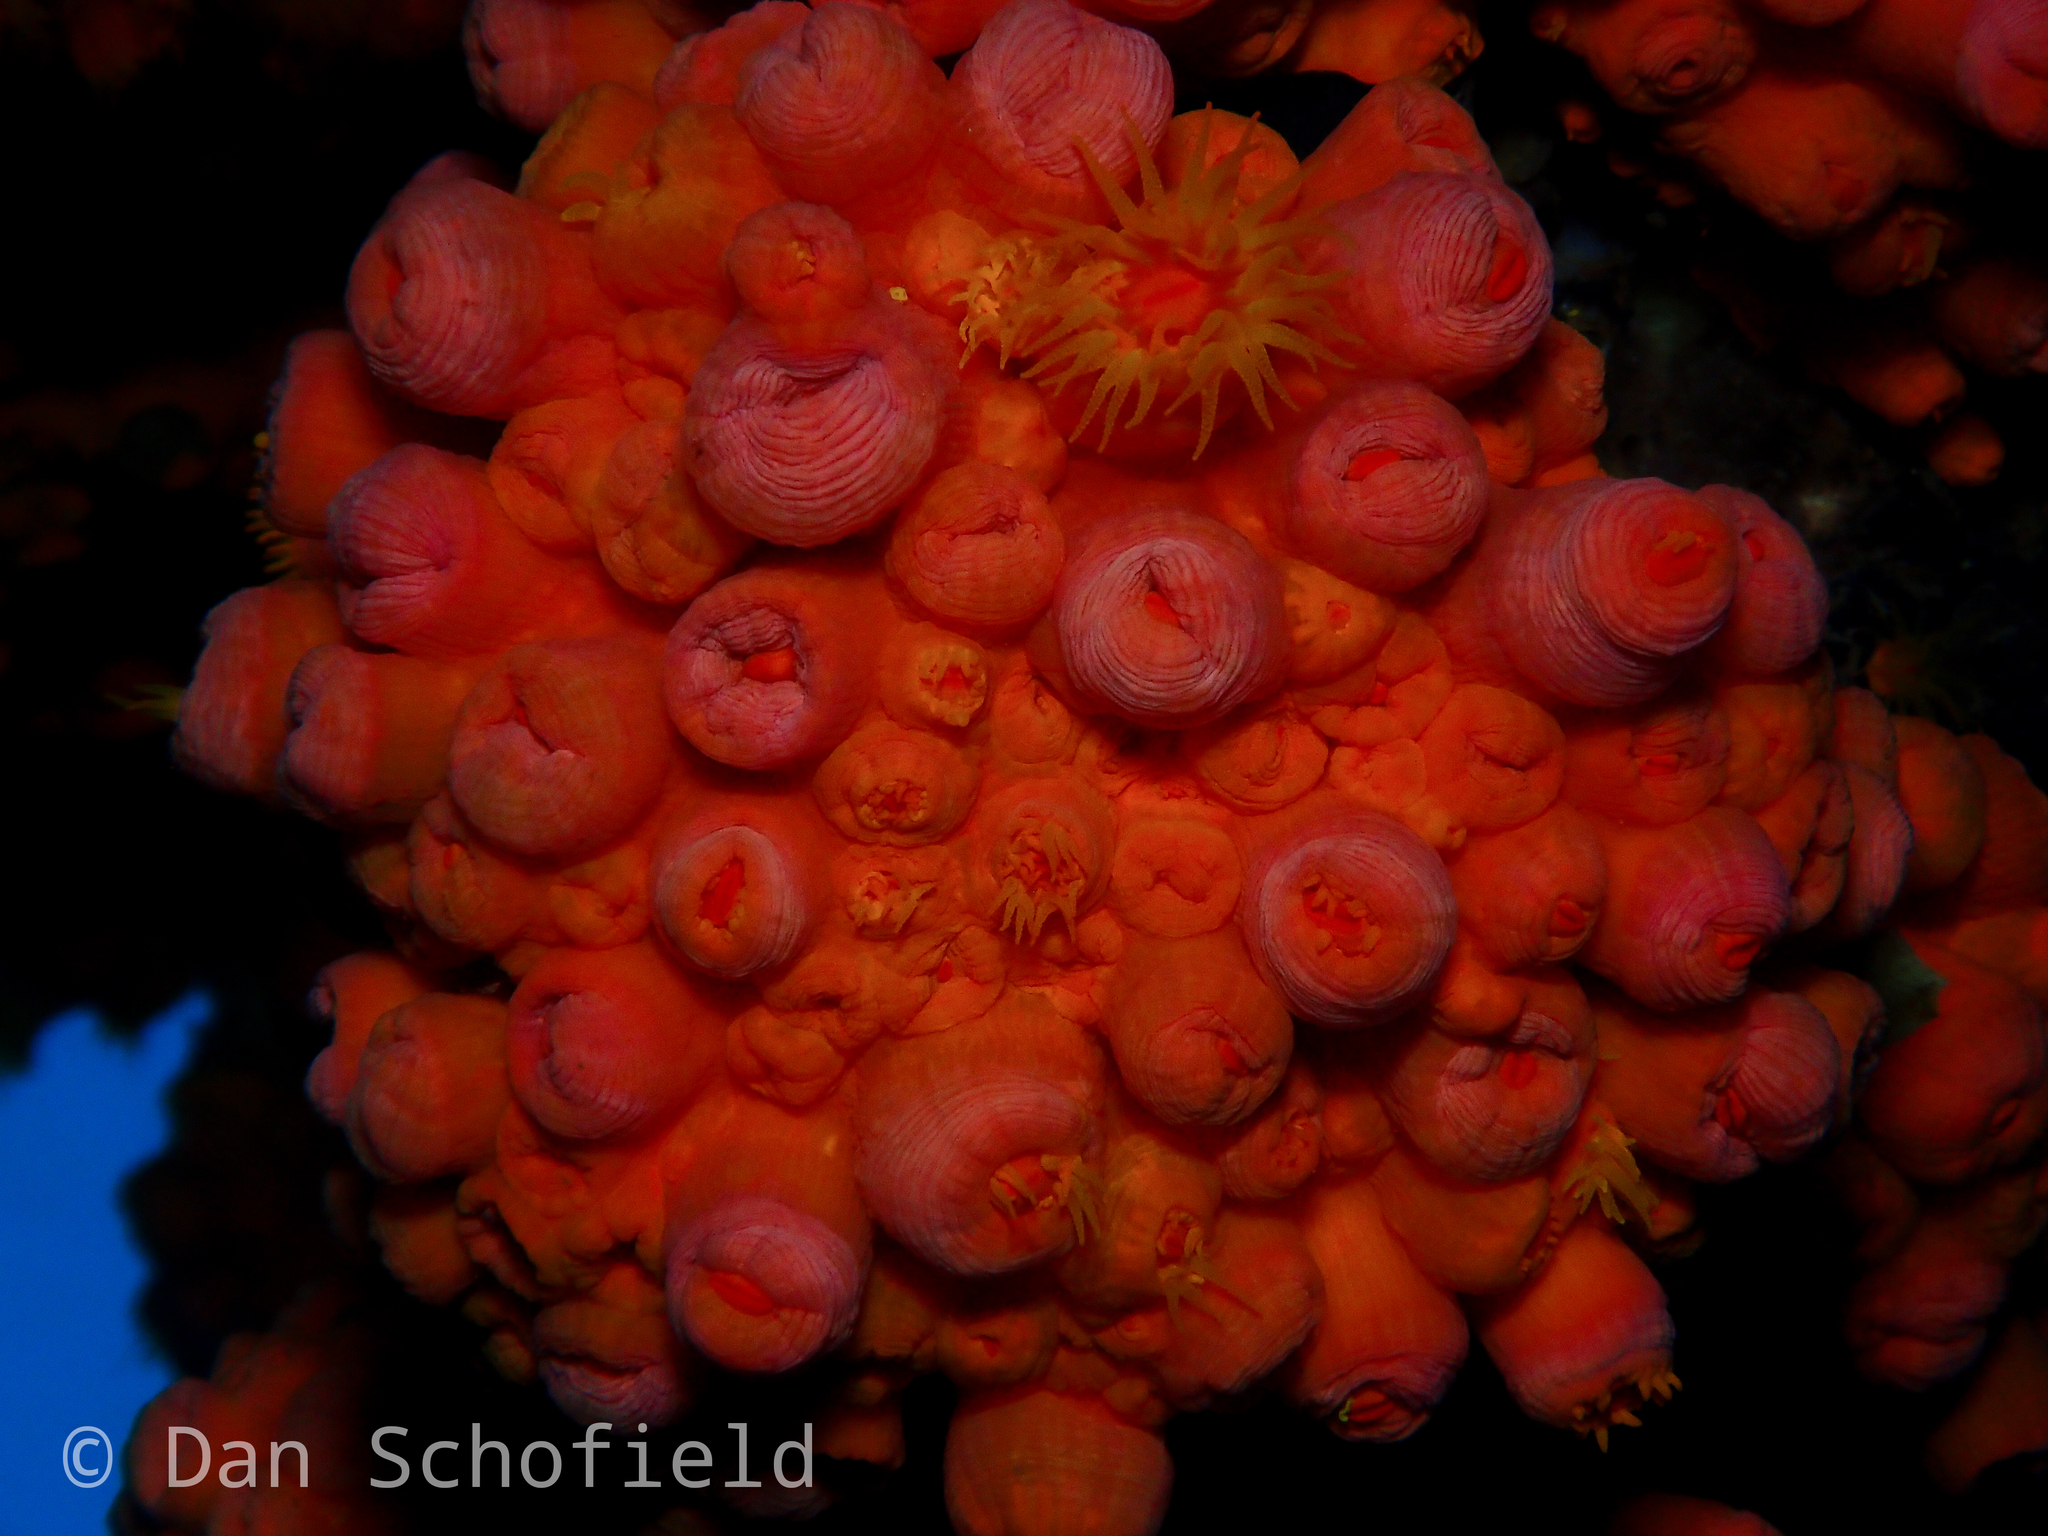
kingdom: Animalia
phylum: Cnidaria
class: Anthozoa
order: Scleractinia
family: Dendrophylliidae
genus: Tubastraea
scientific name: Tubastraea coccinea
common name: Orange cup coral
